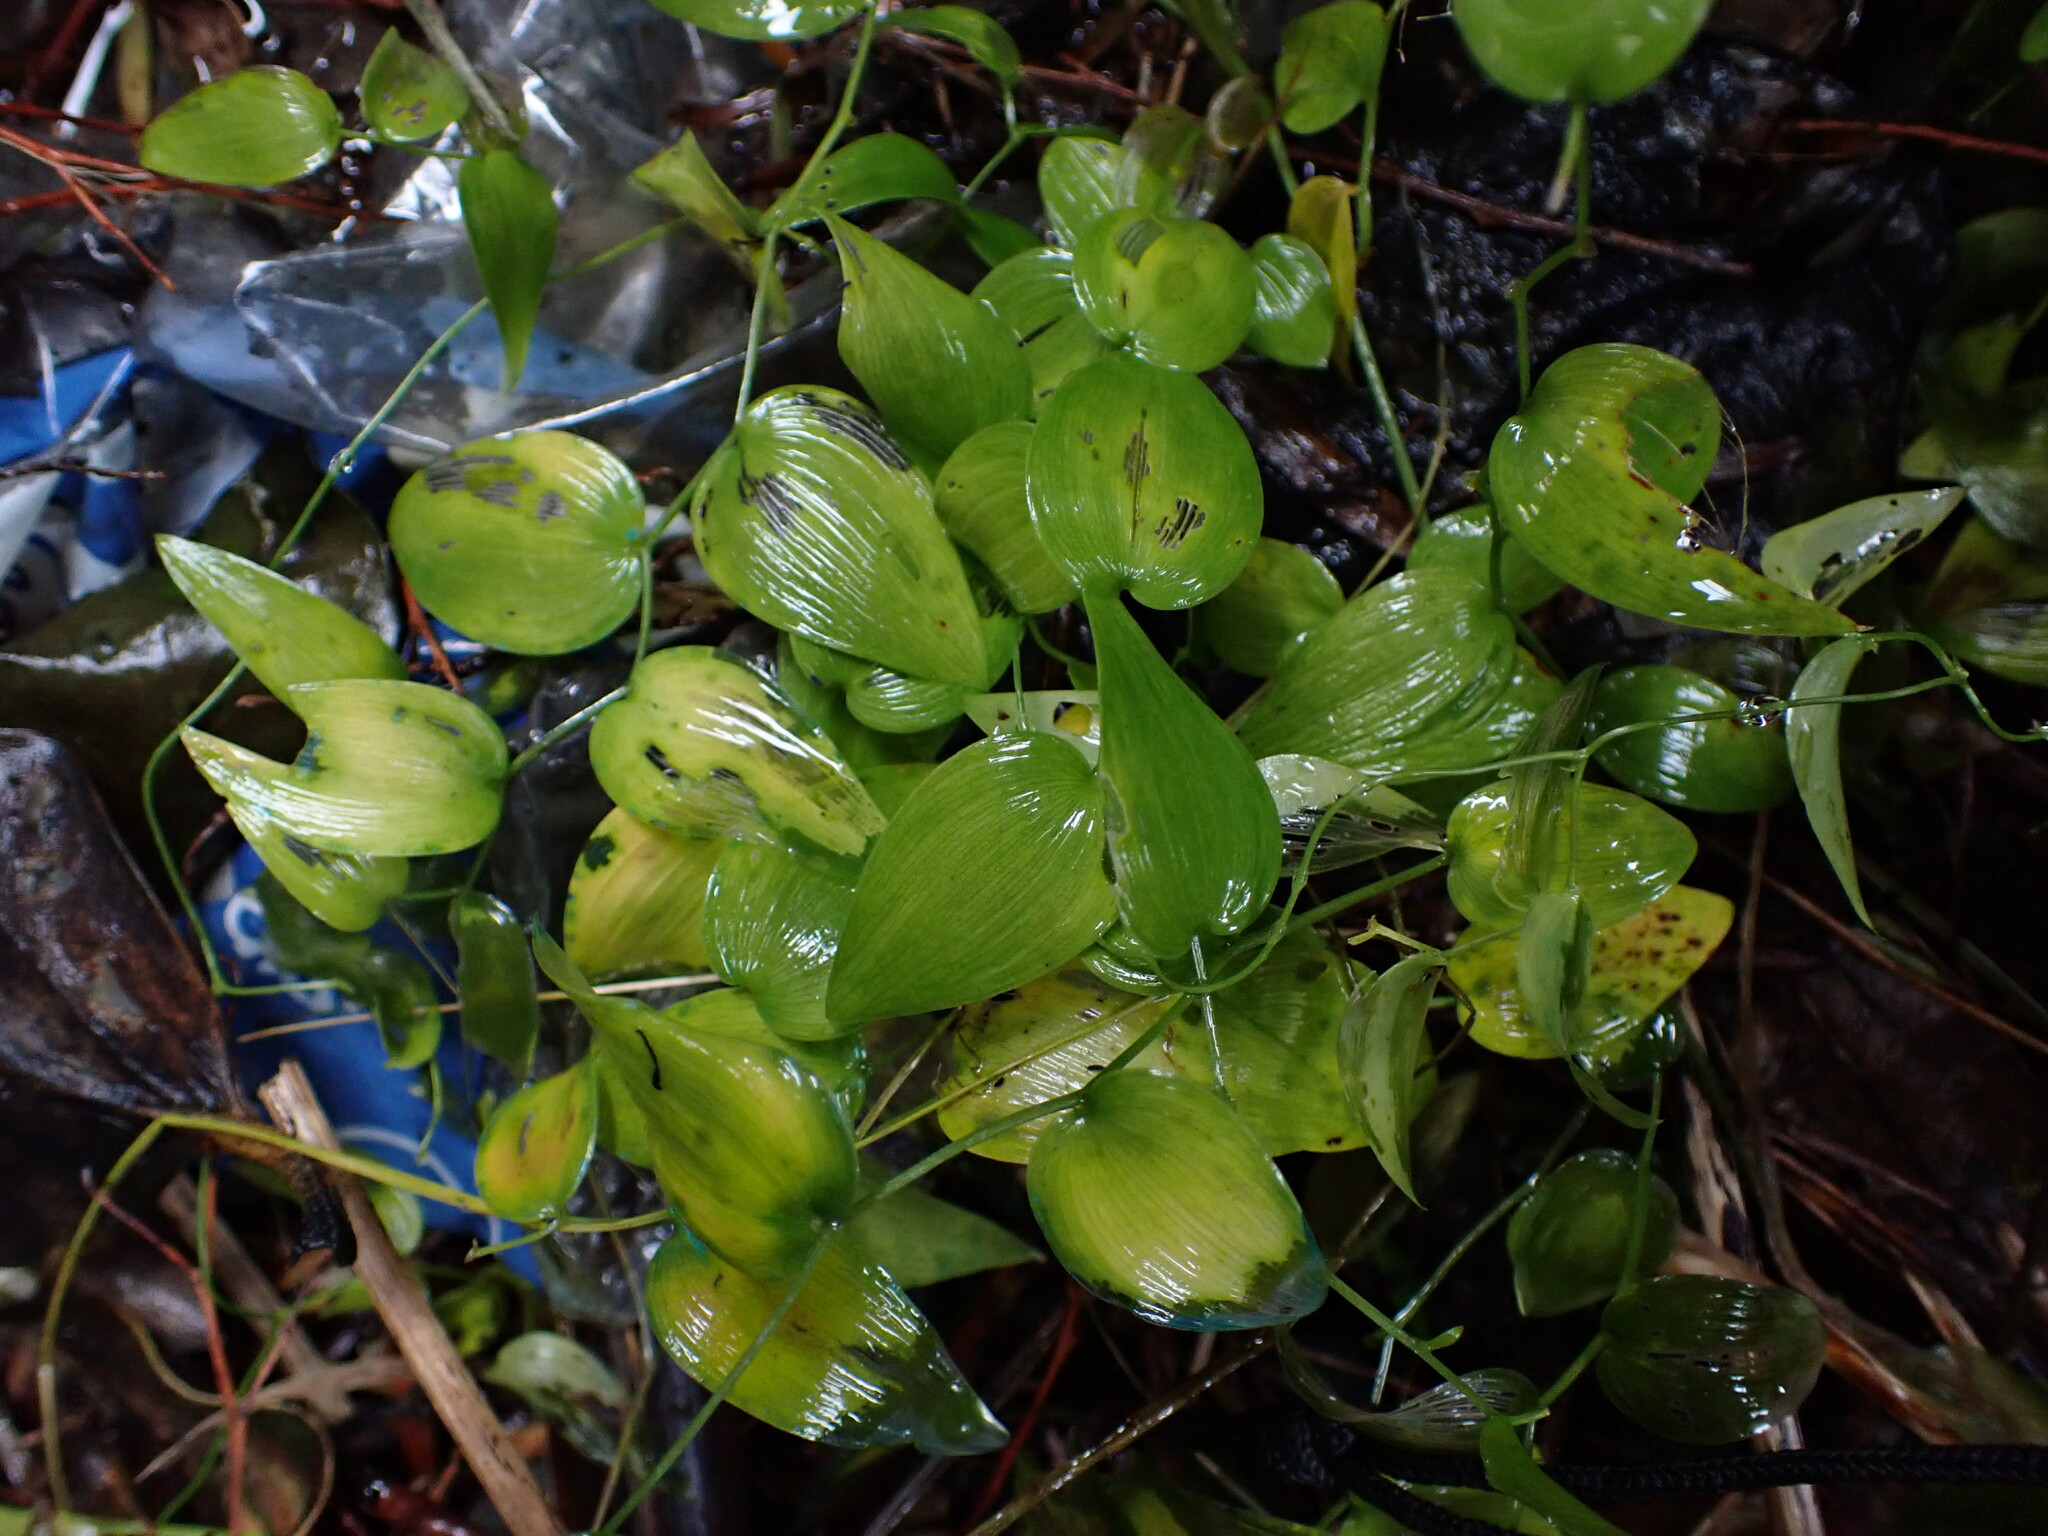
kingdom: Plantae
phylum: Tracheophyta
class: Liliopsida
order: Asparagales
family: Asparagaceae
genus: Asparagus
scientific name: Asparagus asparagoides
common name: African asparagus fern
